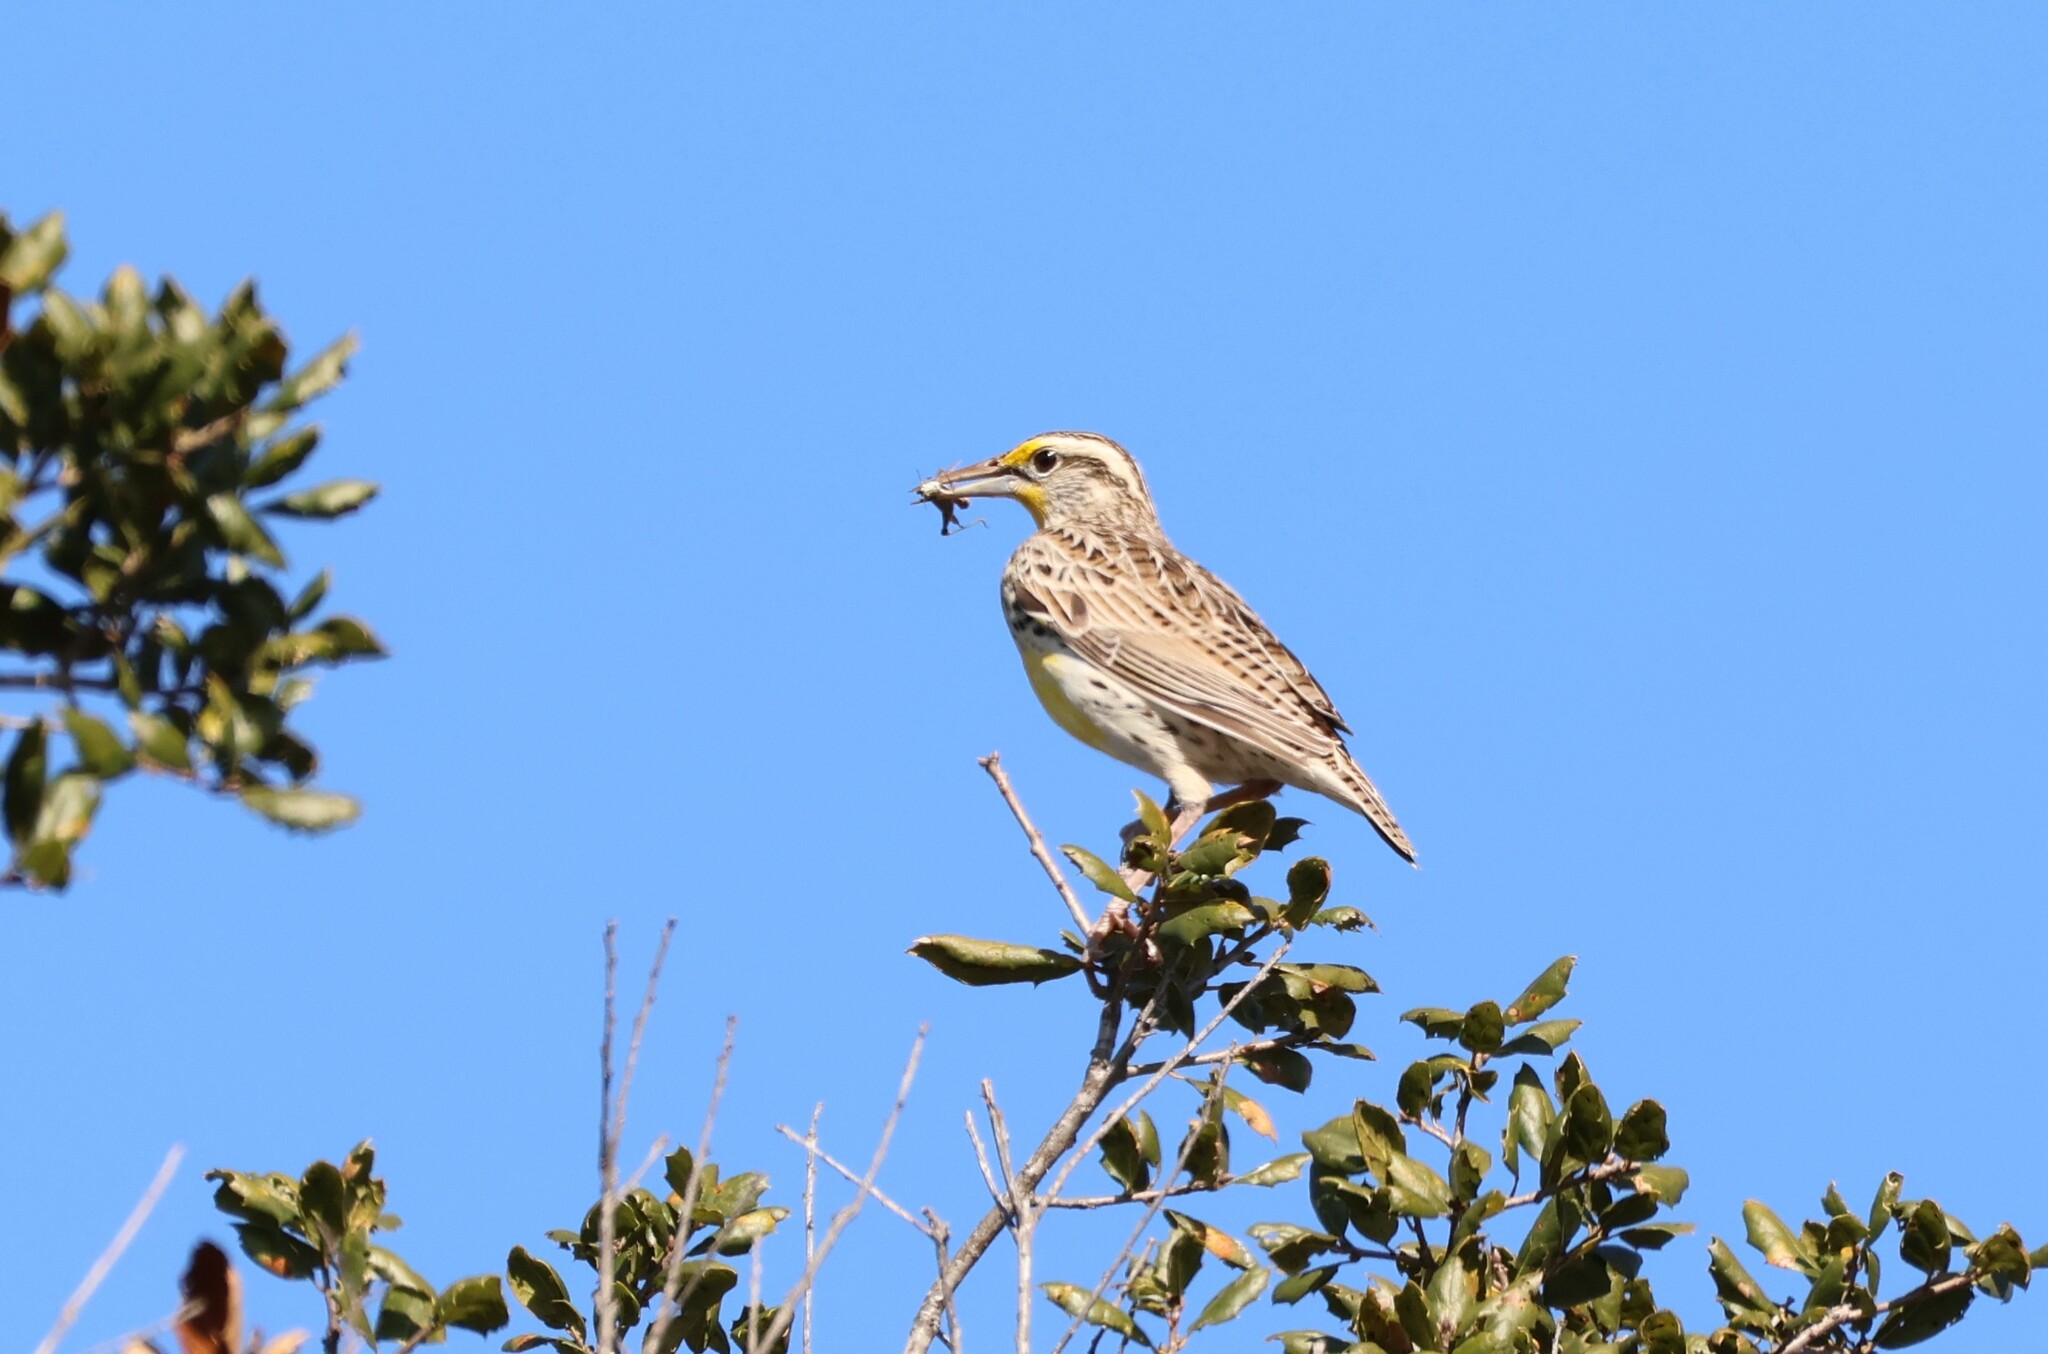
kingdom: Animalia
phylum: Chordata
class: Aves
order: Passeriformes
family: Icteridae
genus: Sturnella
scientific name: Sturnella neglecta
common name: Western meadowlark
